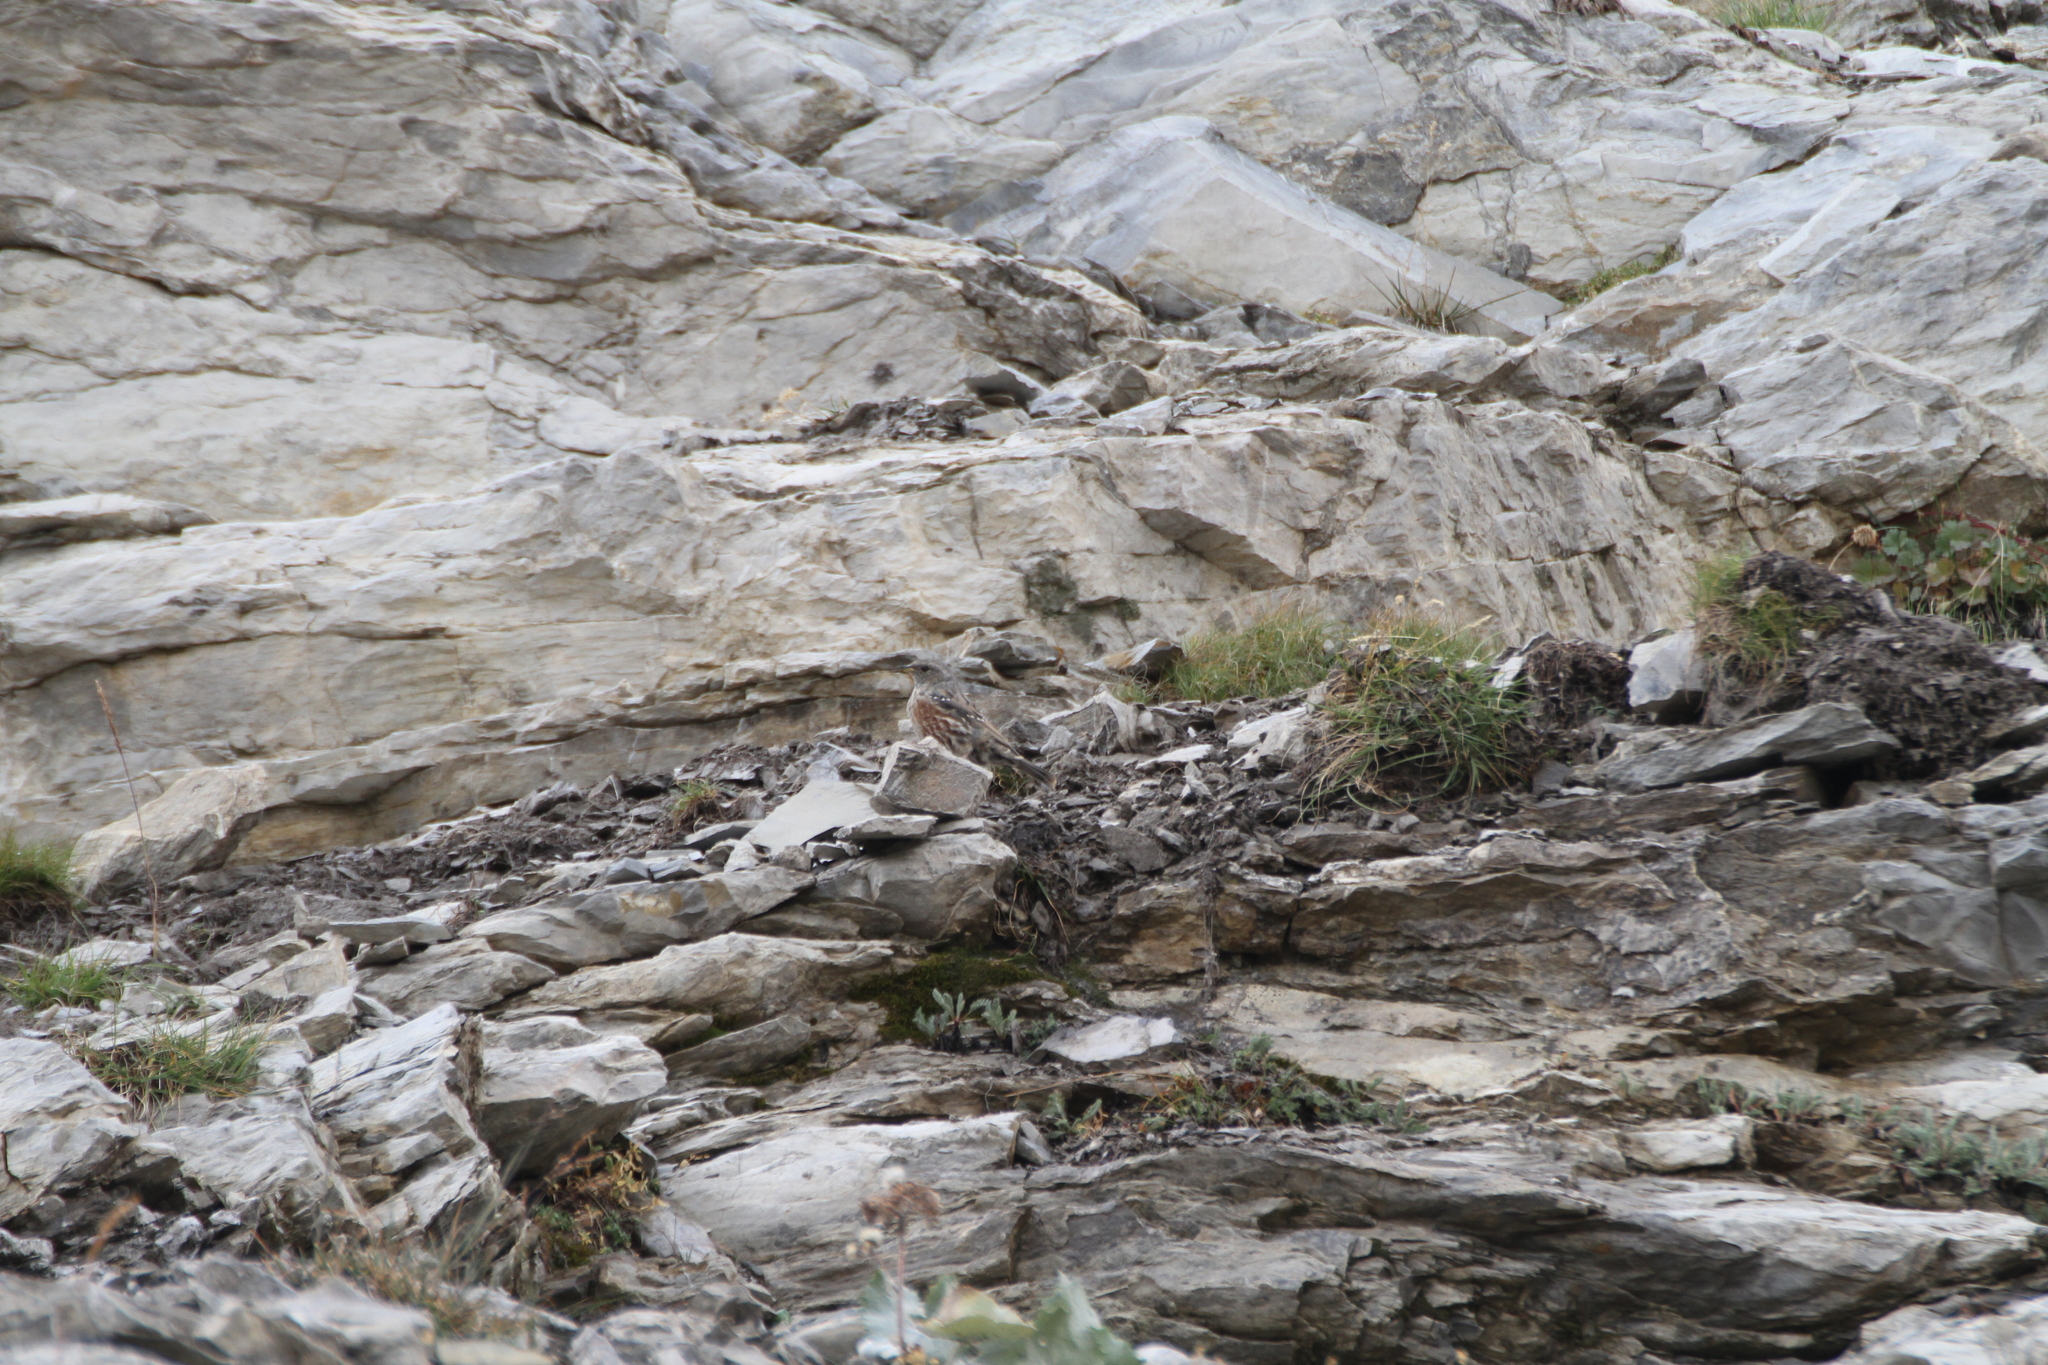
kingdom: Animalia
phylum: Chordata
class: Aves
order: Passeriformes
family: Prunellidae
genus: Prunella
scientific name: Prunella collaris
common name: Alpine accentor
